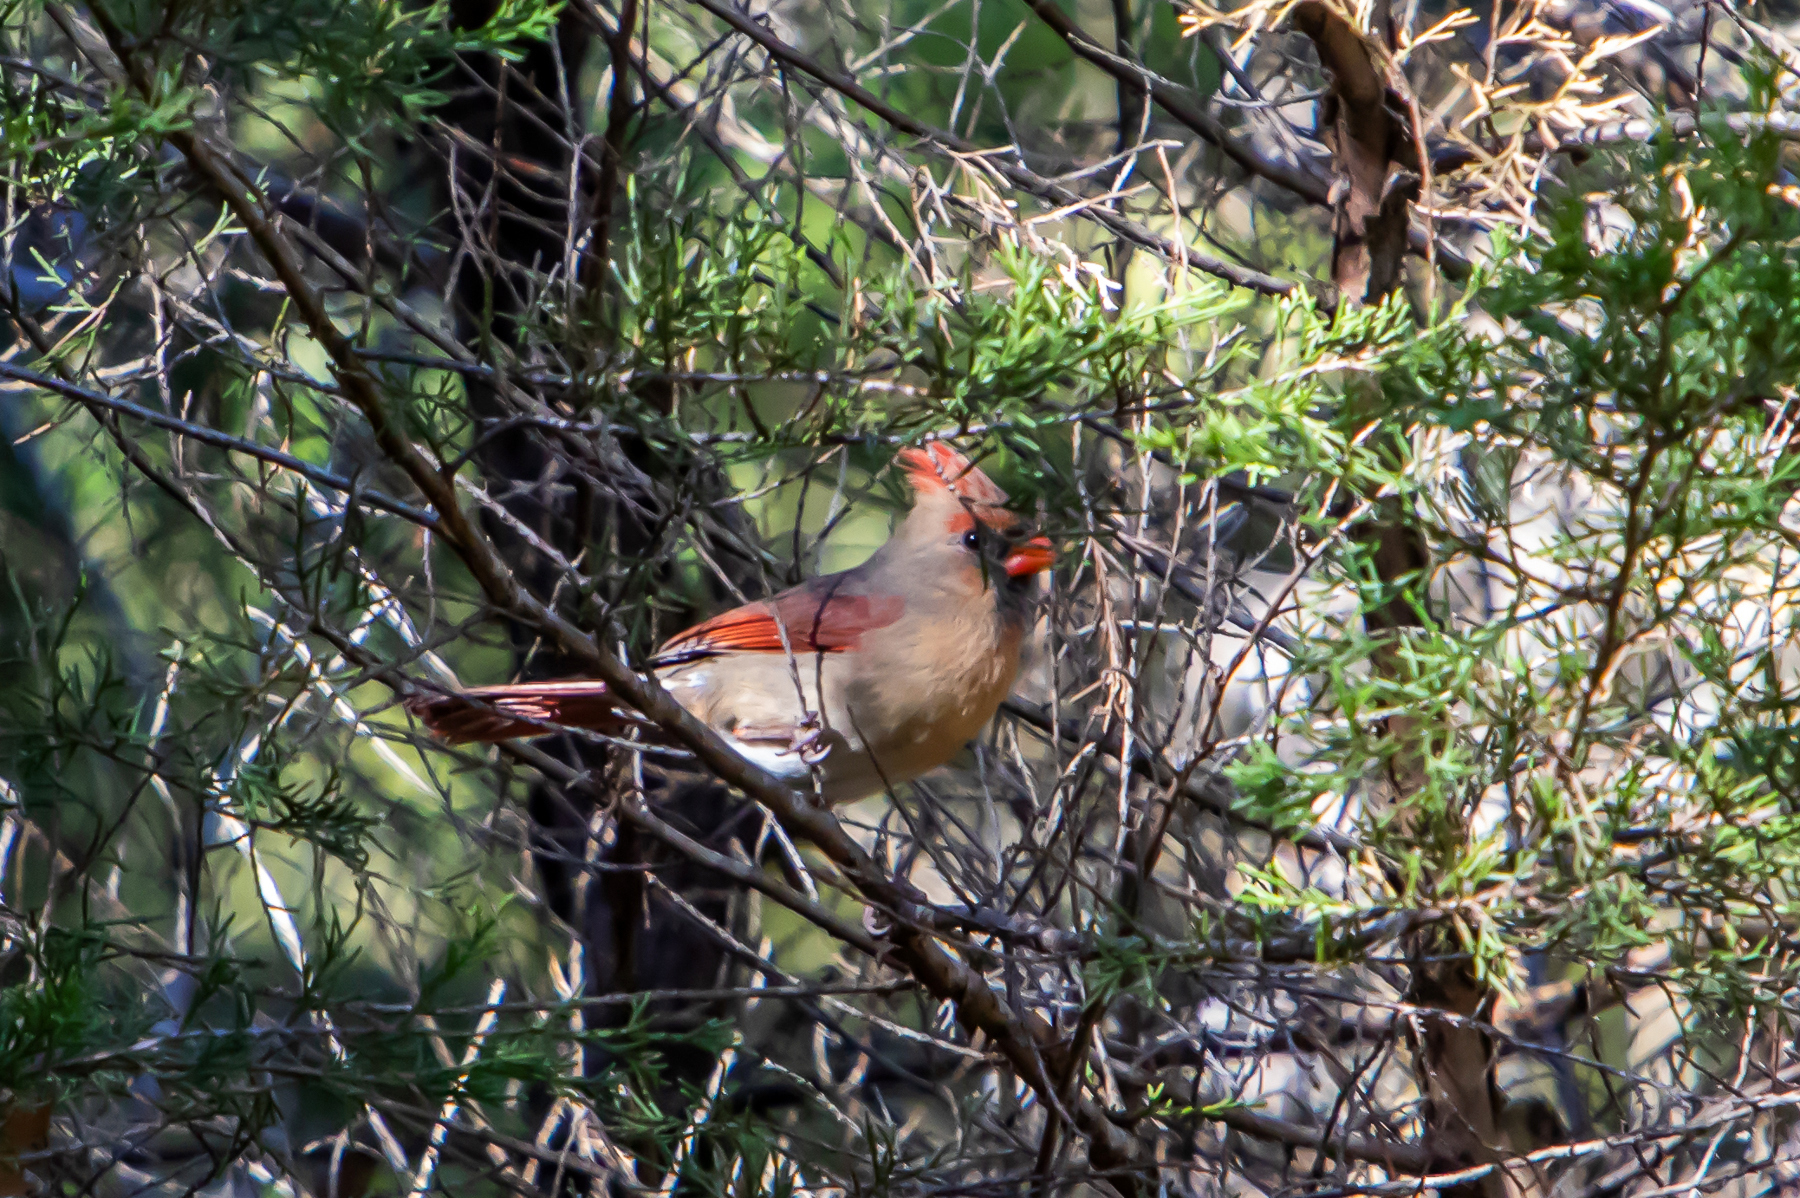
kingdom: Animalia
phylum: Chordata
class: Aves
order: Passeriformes
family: Cardinalidae
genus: Cardinalis
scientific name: Cardinalis cardinalis
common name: Northern cardinal
